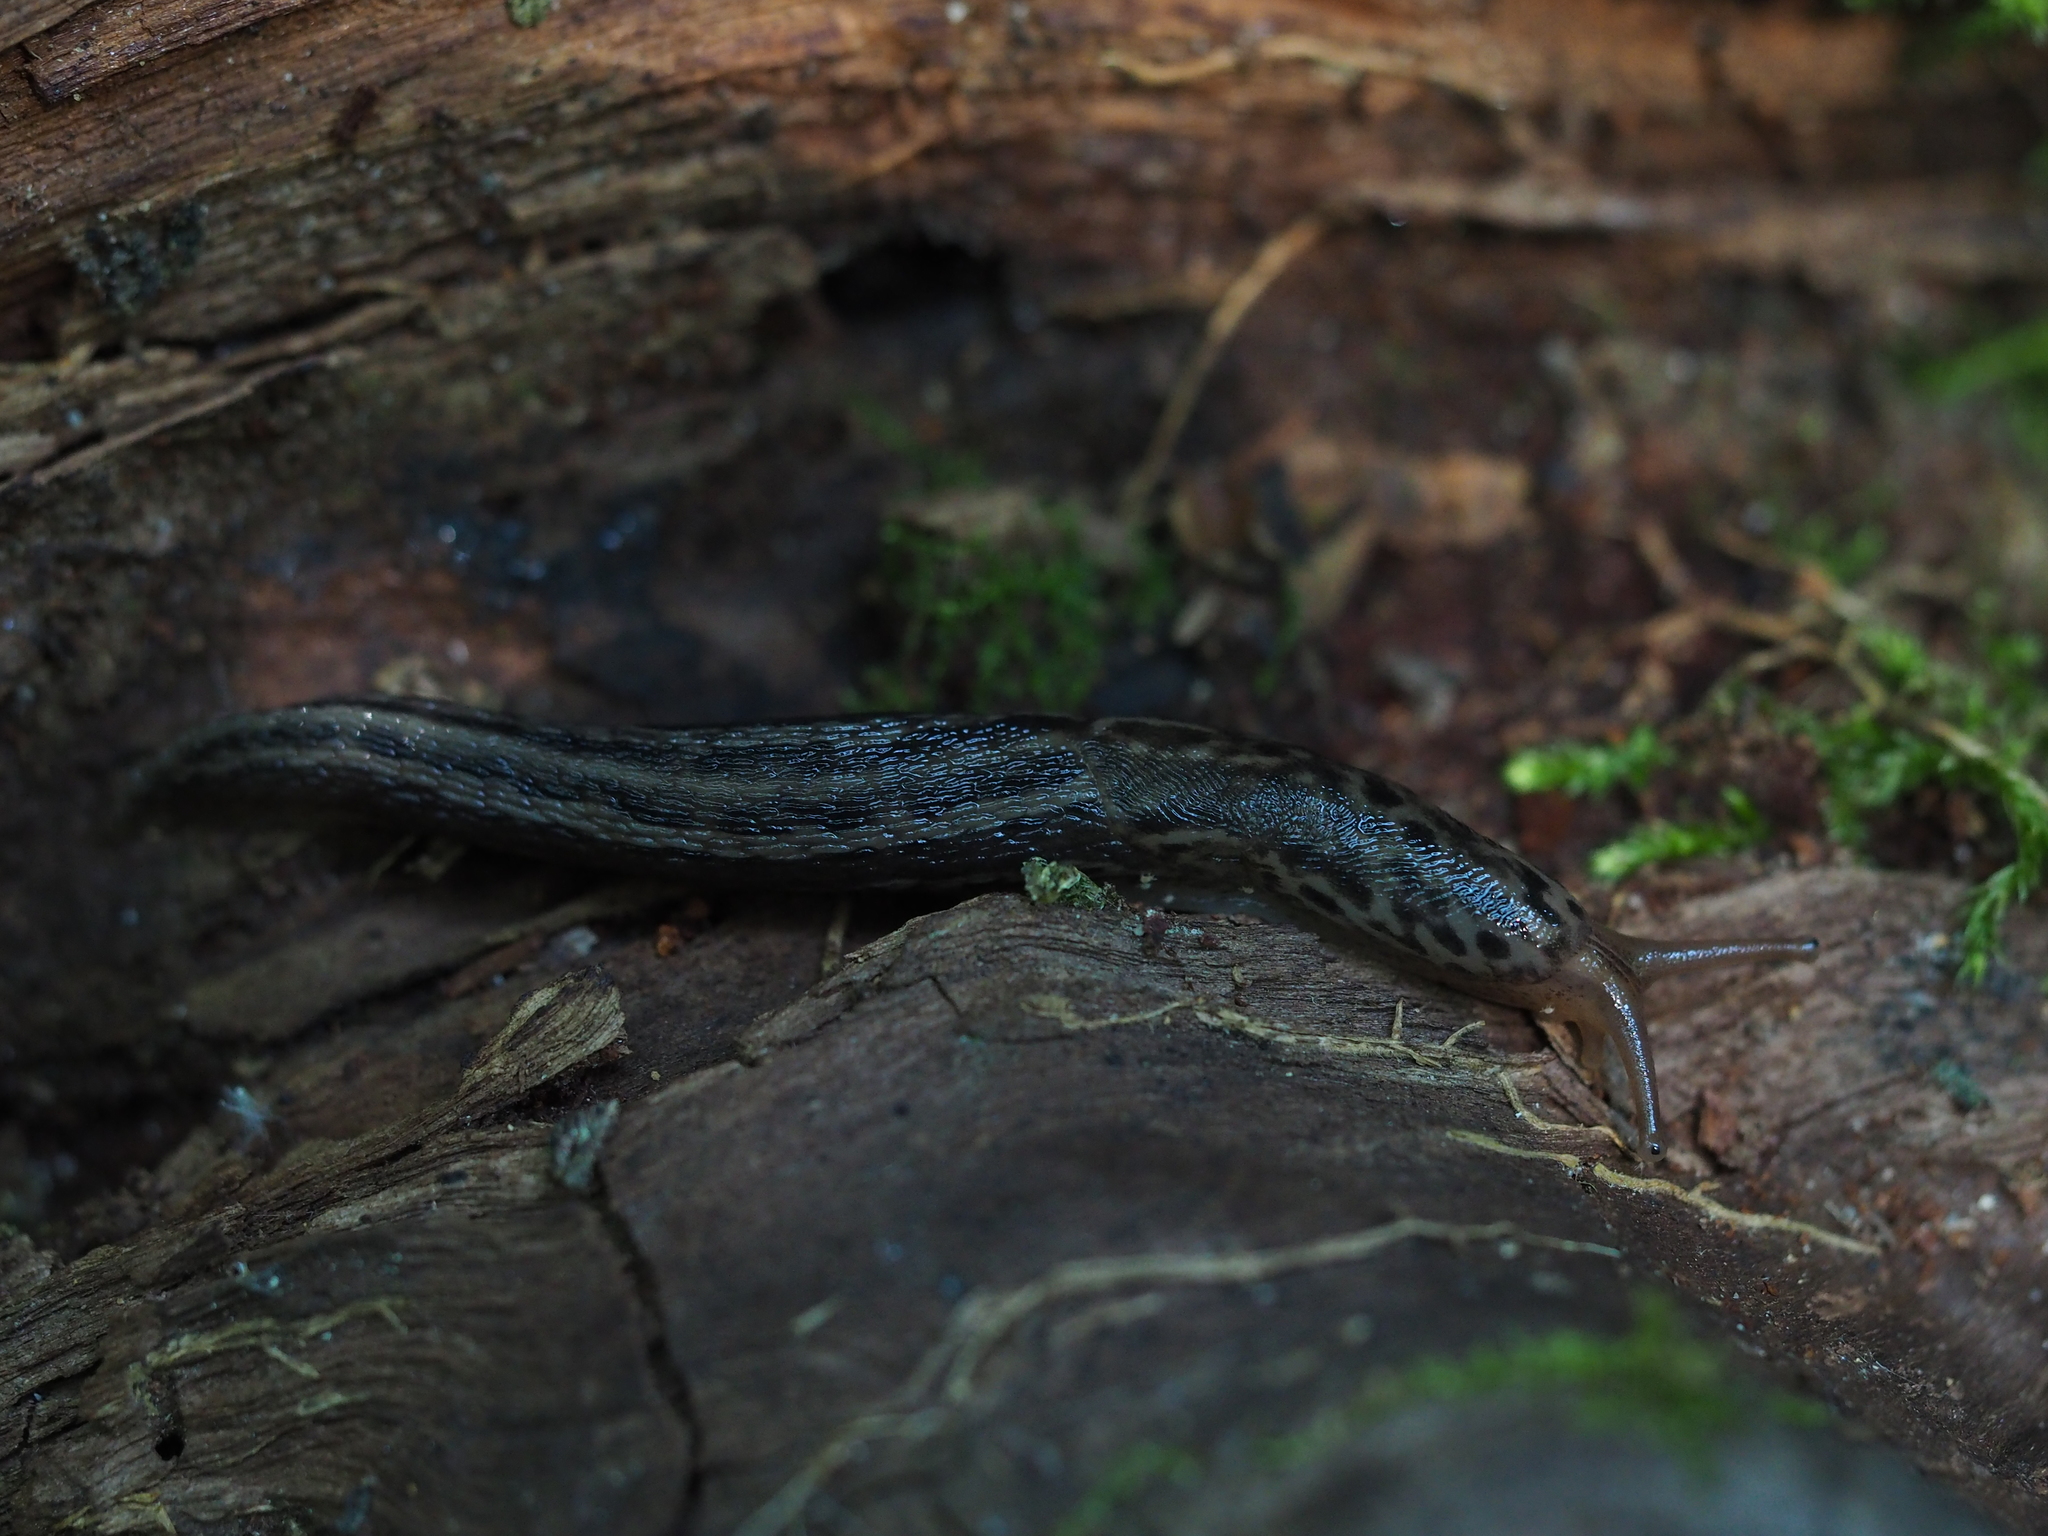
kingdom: Animalia
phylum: Mollusca
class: Gastropoda
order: Stylommatophora
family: Limacidae
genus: Limax
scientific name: Limax maximus
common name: Great grey slug
